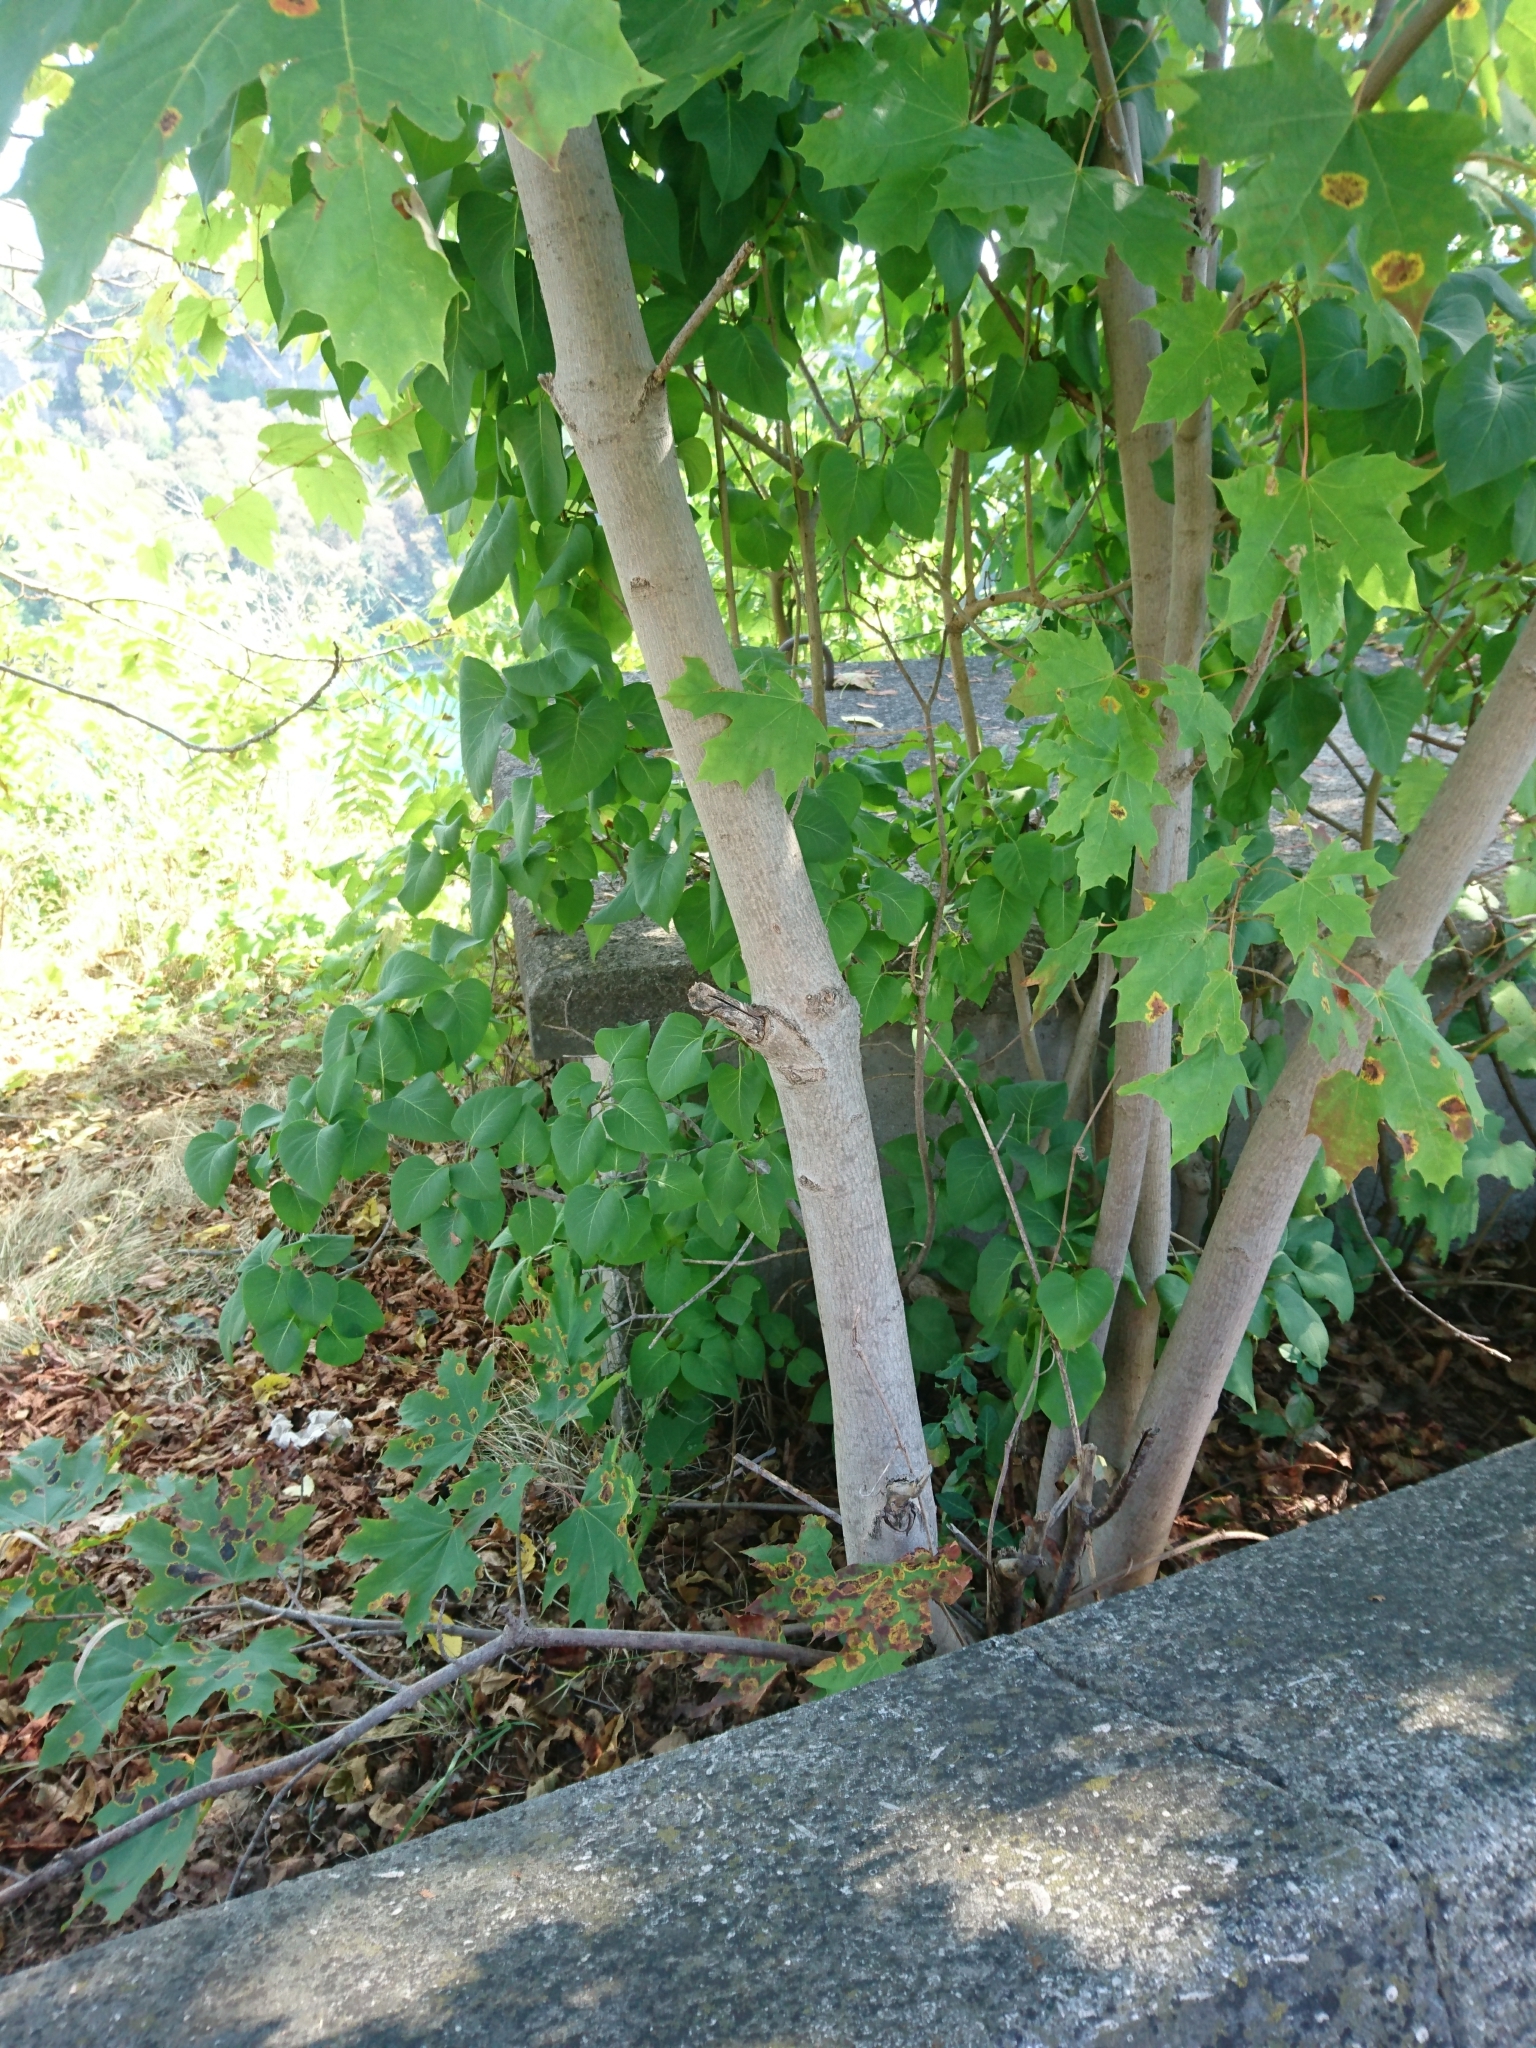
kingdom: Plantae
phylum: Tracheophyta
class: Magnoliopsida
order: Sapindales
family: Sapindaceae
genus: Acer
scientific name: Acer platanoides
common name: Norway maple
